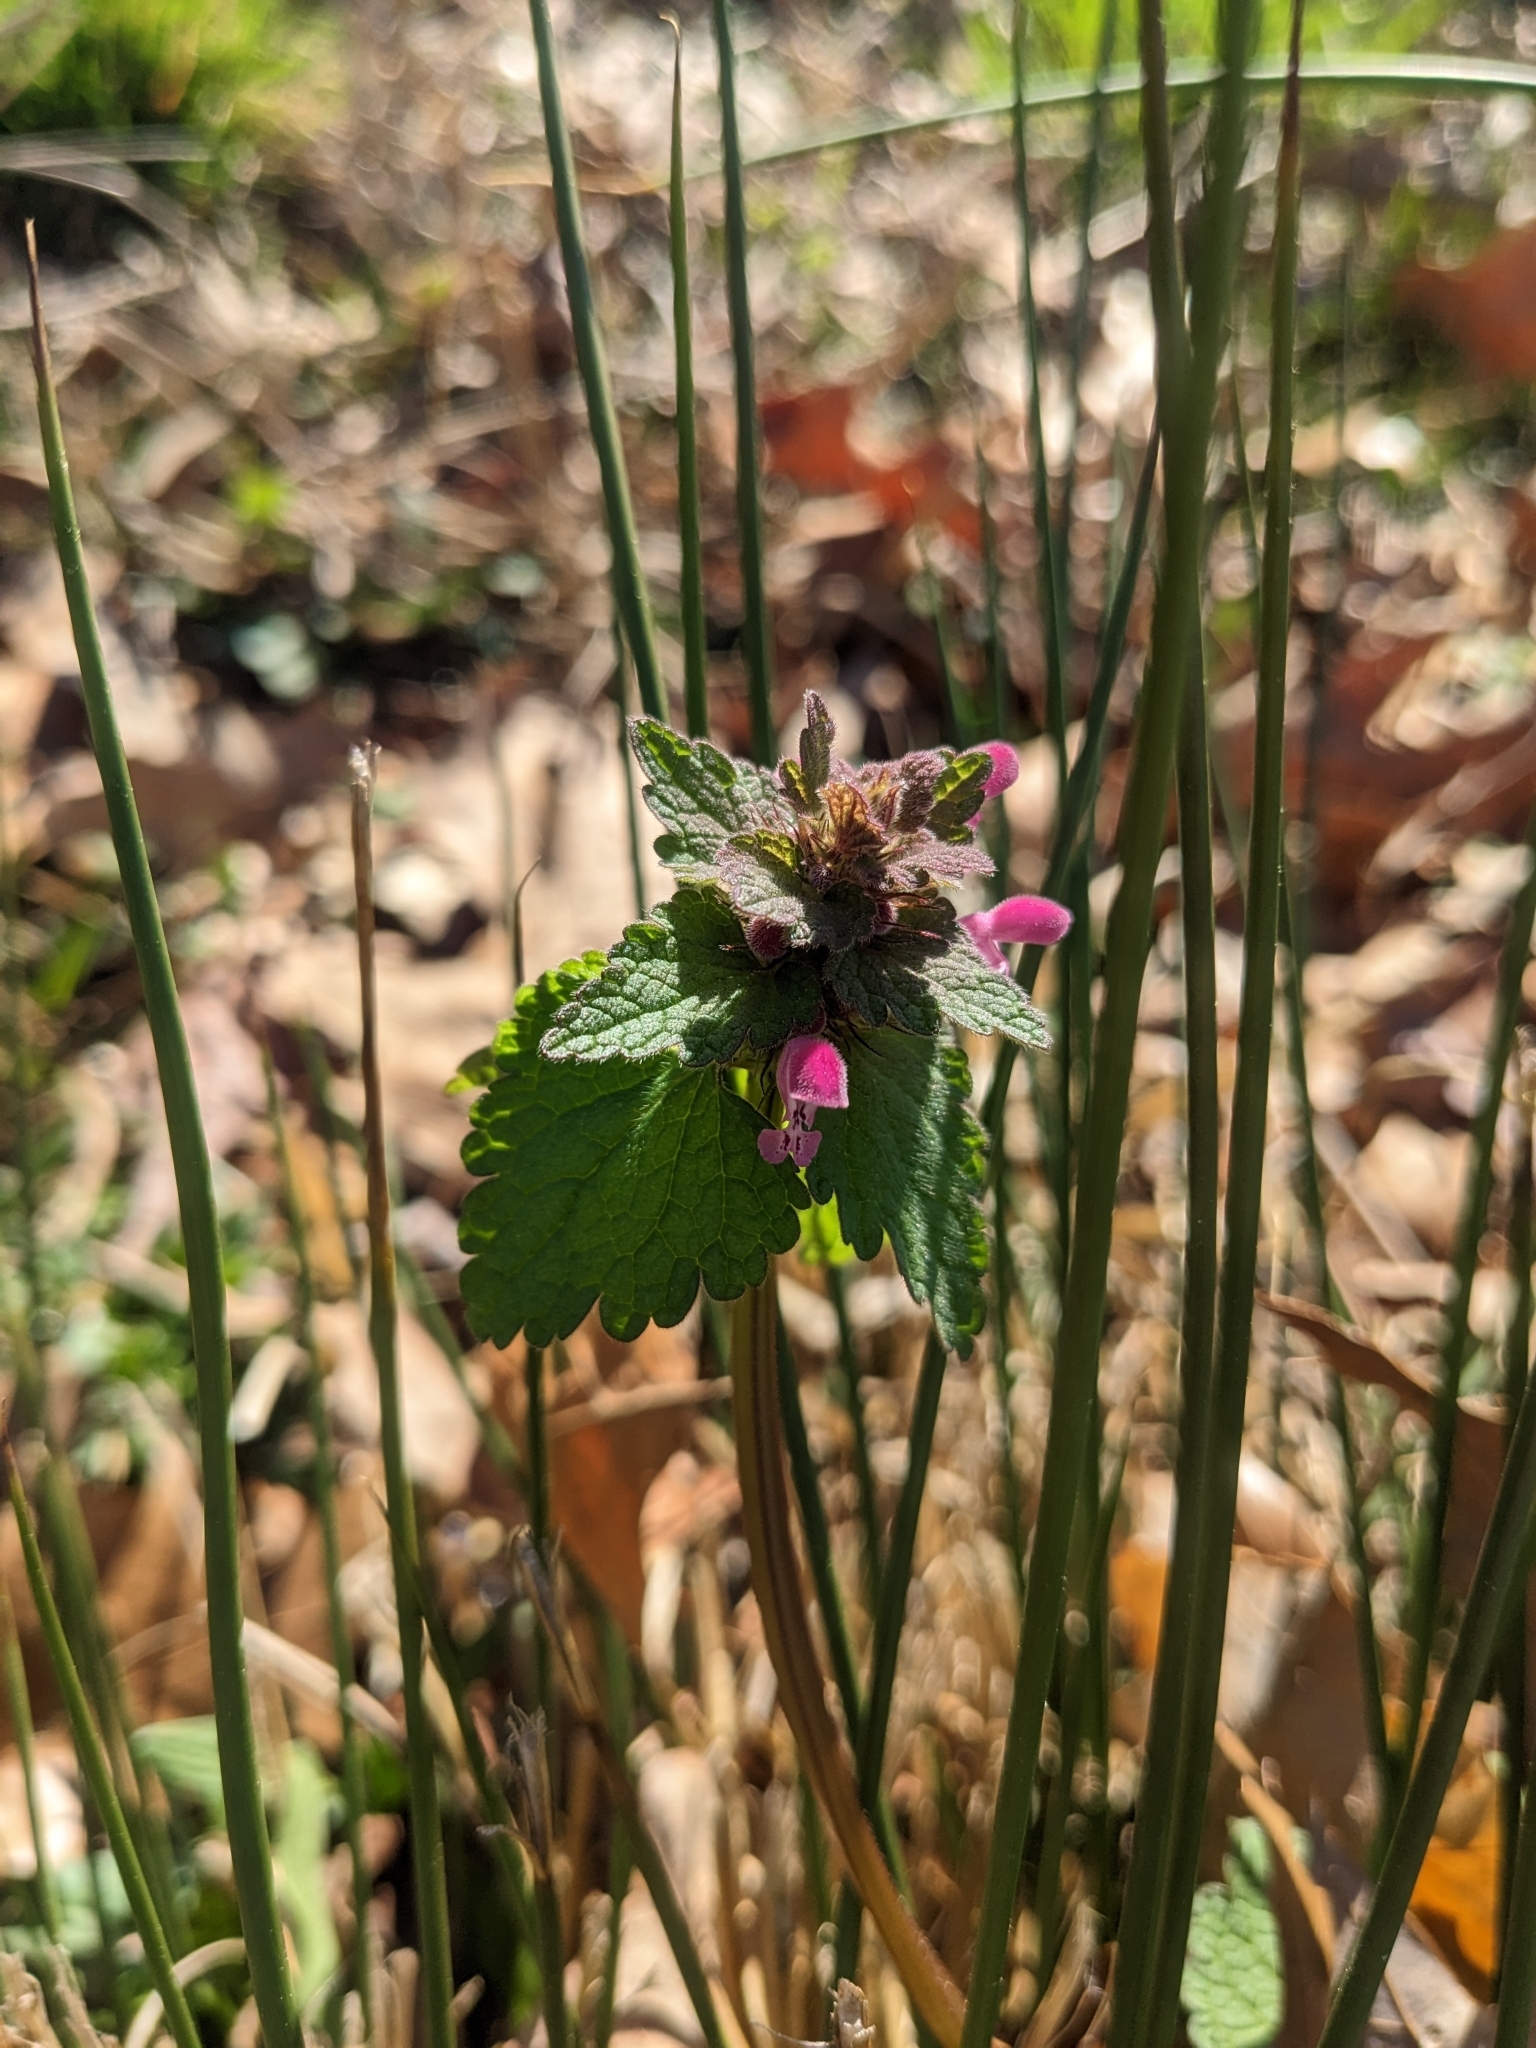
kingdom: Plantae
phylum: Tracheophyta
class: Magnoliopsida
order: Lamiales
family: Lamiaceae
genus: Lamium
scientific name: Lamium purpureum
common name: Red dead-nettle
